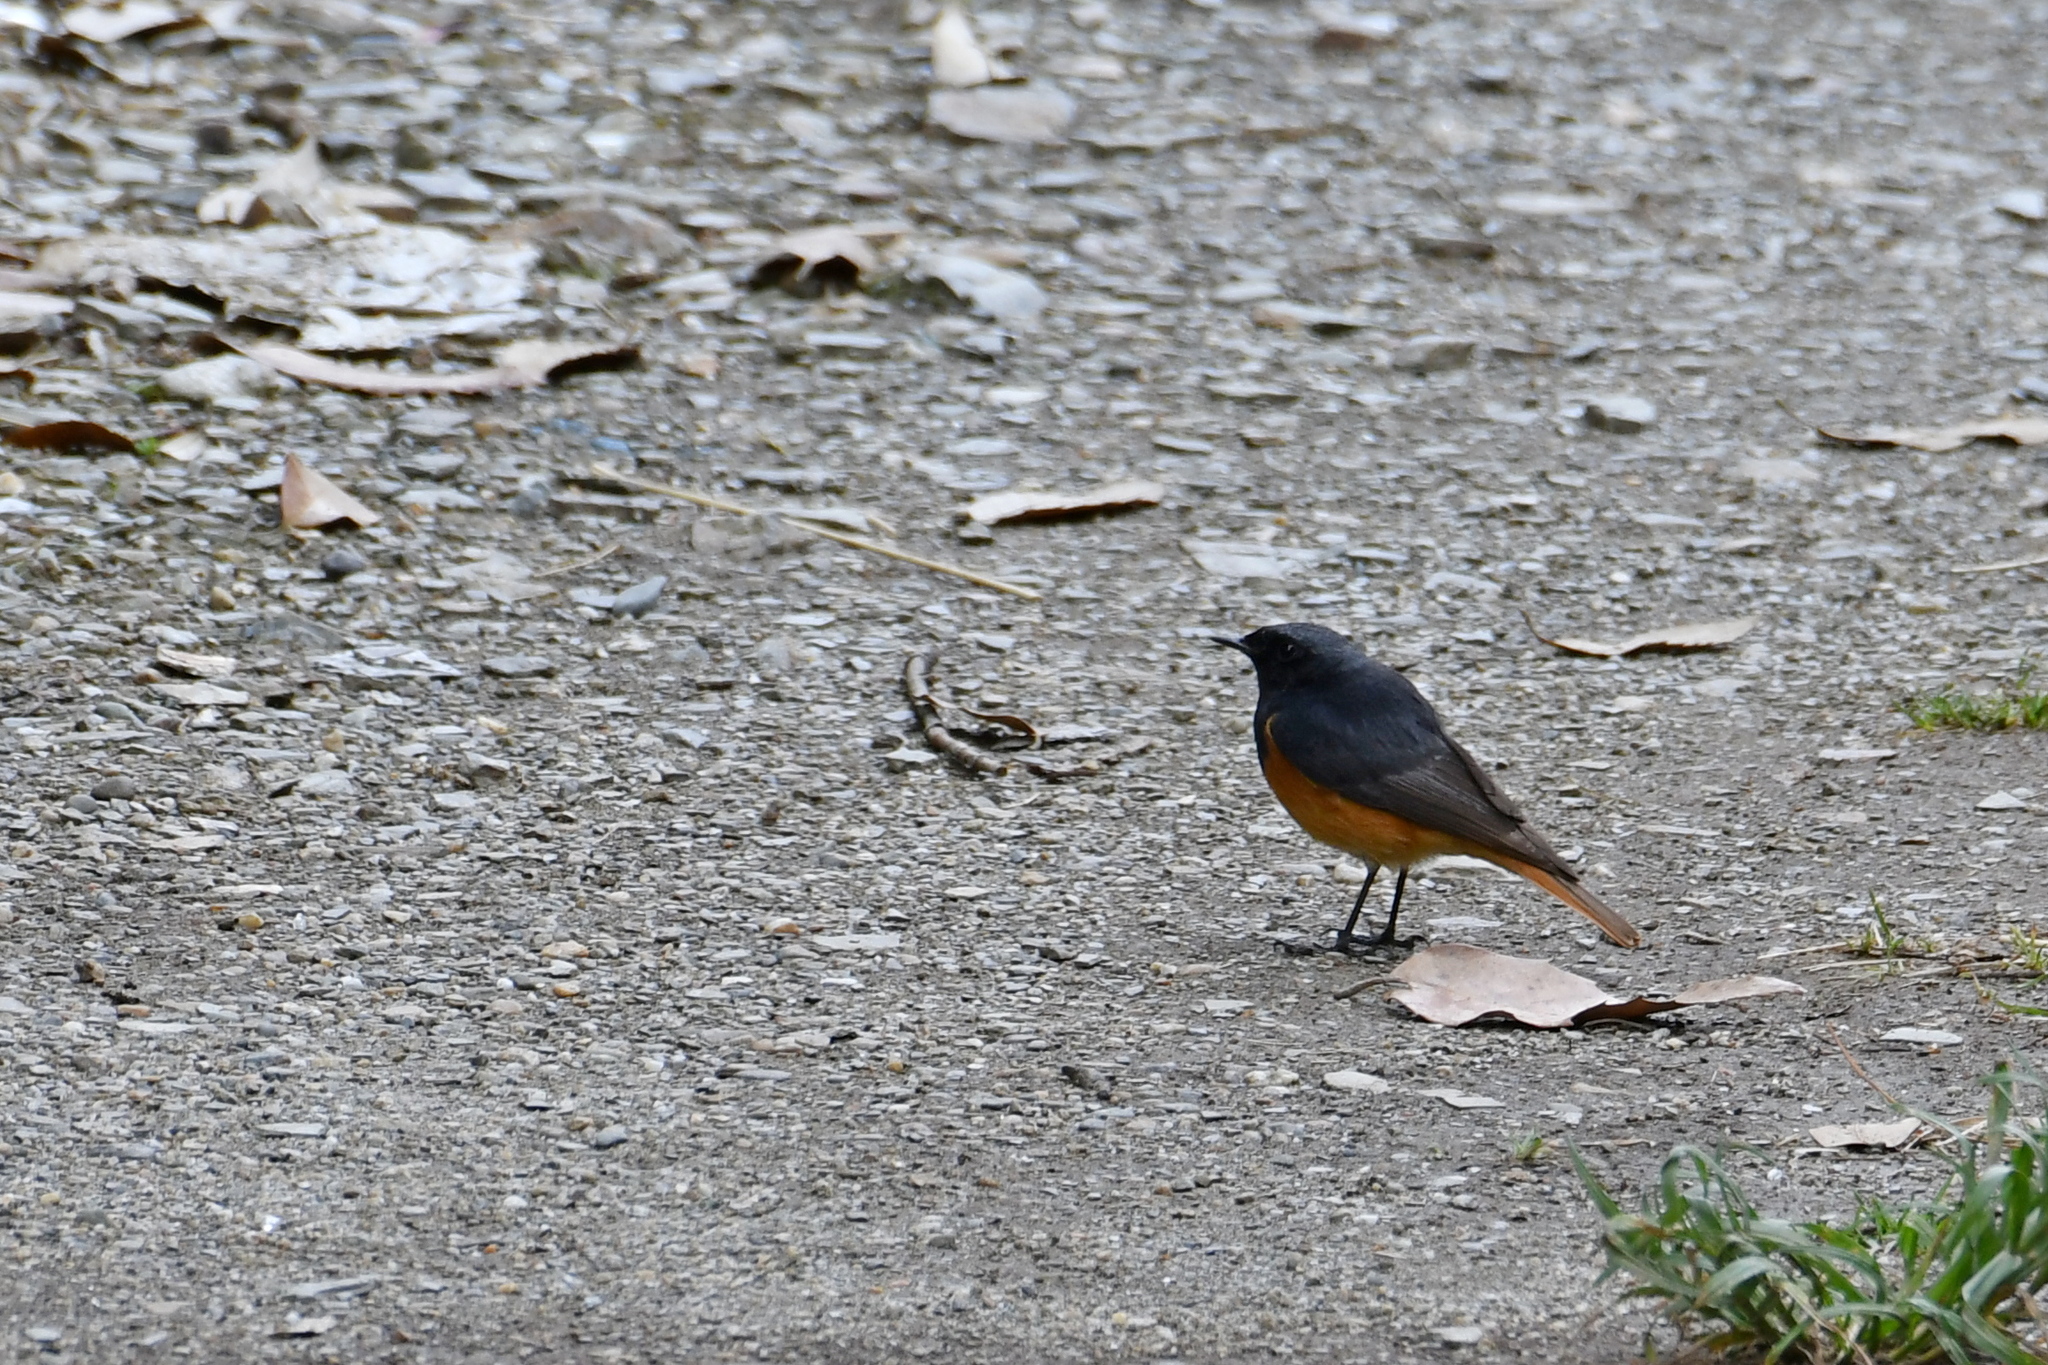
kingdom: Animalia
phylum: Chordata
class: Aves
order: Passeriformes
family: Muscicapidae
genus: Phoenicurus
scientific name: Phoenicurus ochruros
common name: Black redstart
